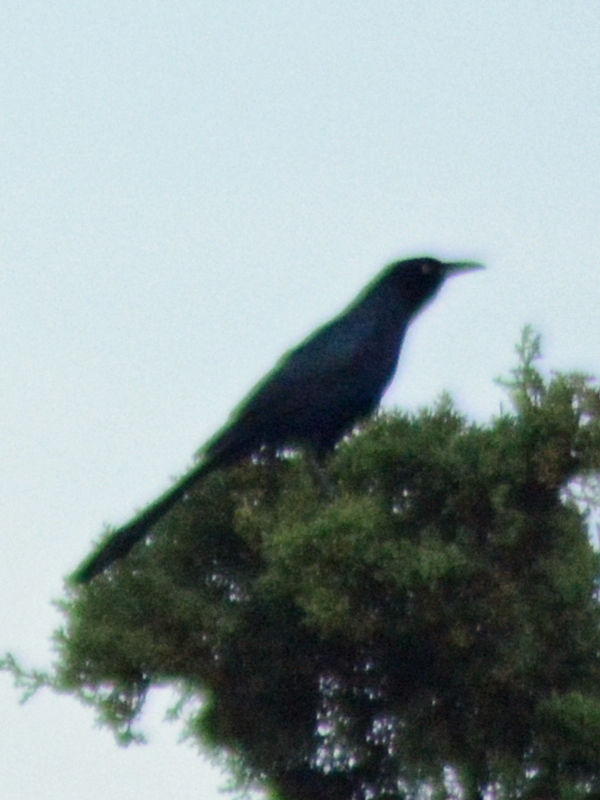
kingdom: Animalia
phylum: Chordata
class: Aves
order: Passeriformes
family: Icteridae
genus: Quiscalus
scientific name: Quiscalus mexicanus
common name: Great-tailed grackle
